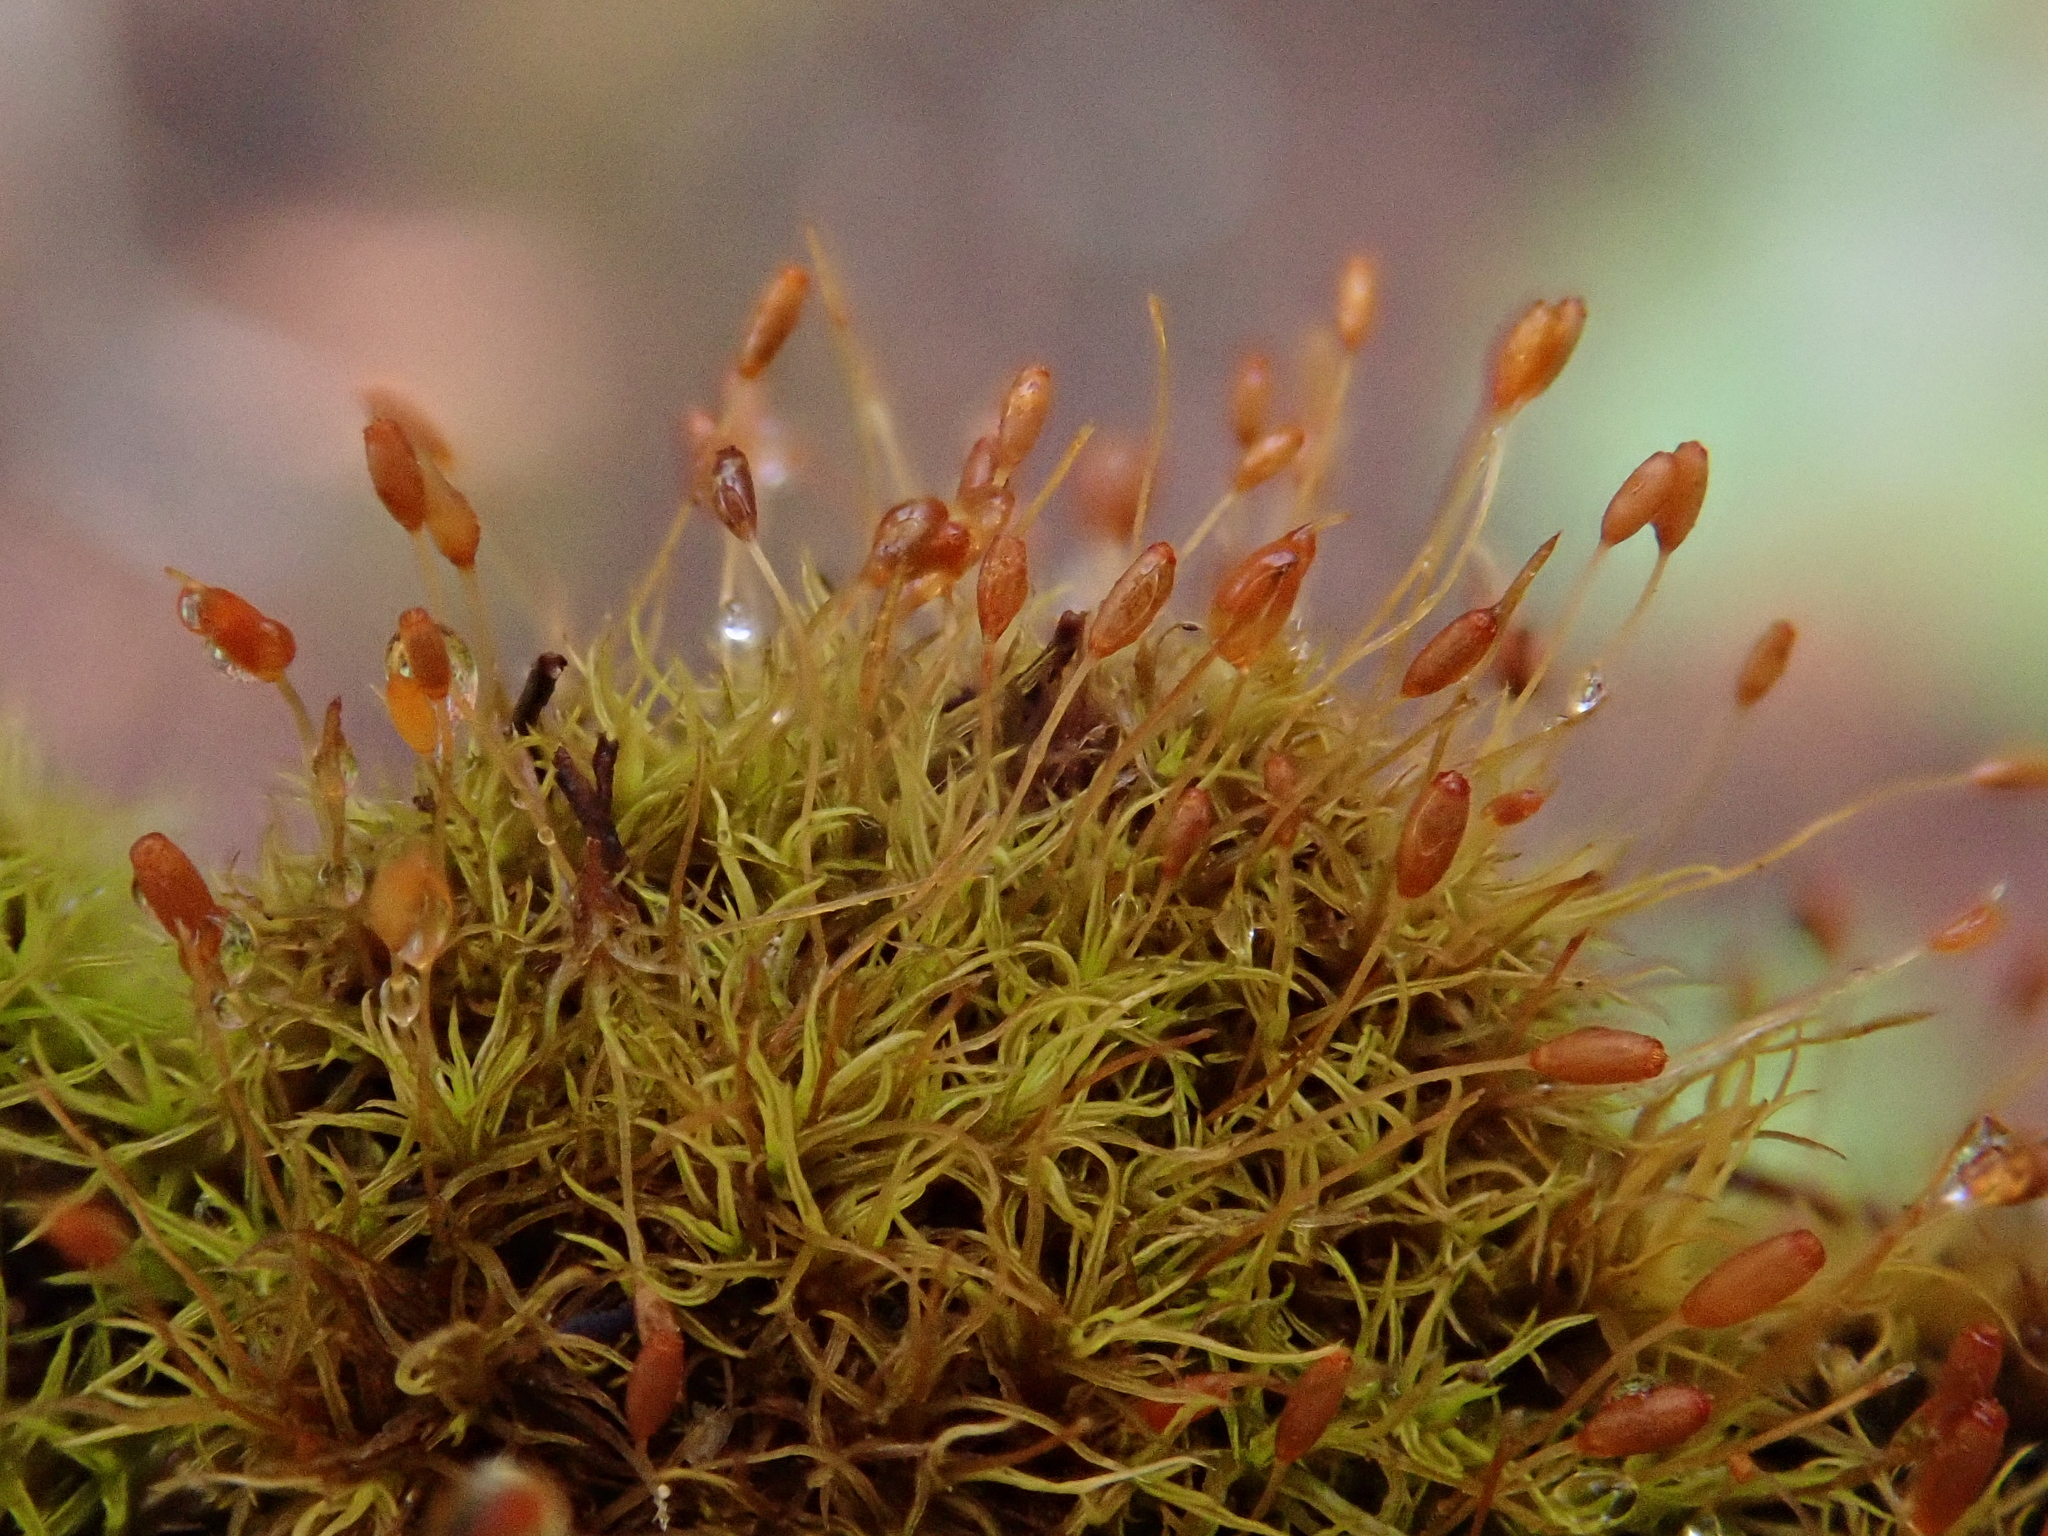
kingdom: Plantae
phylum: Bryophyta
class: Bryopsida
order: Pottiales
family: Pottiaceae
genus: Weissia
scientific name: Weissia controversa
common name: Green-tufted stubble moss
